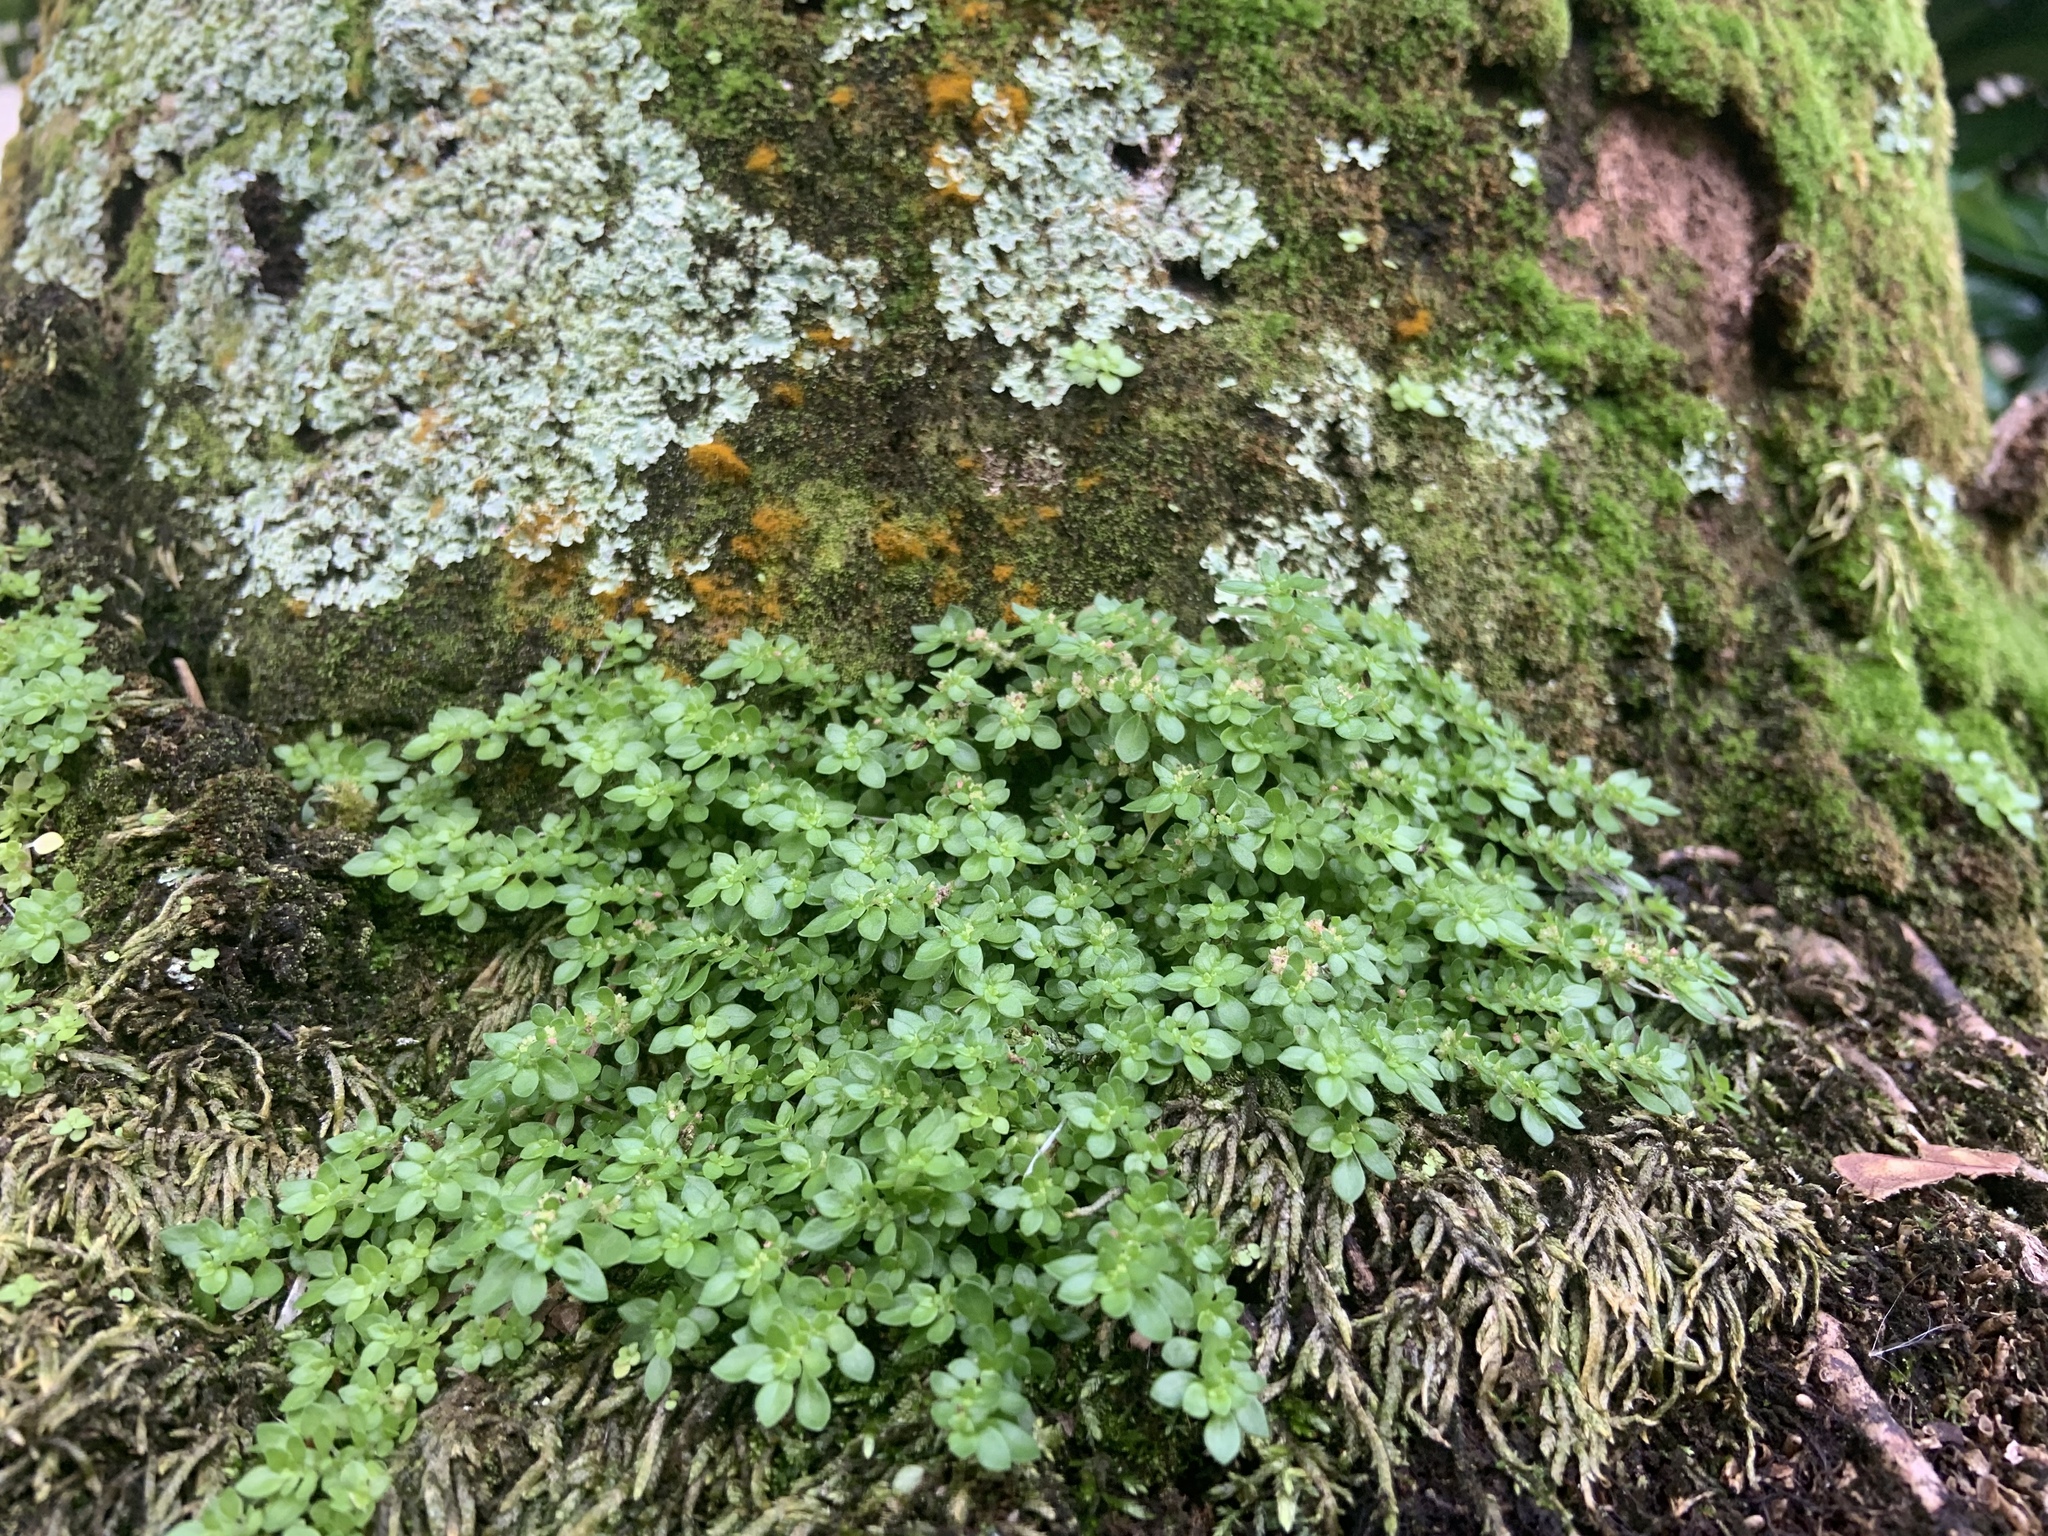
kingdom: Plantae
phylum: Tracheophyta
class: Magnoliopsida
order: Rosales
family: Urticaceae
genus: Pilea
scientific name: Pilea microphylla
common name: Artillery-plant
